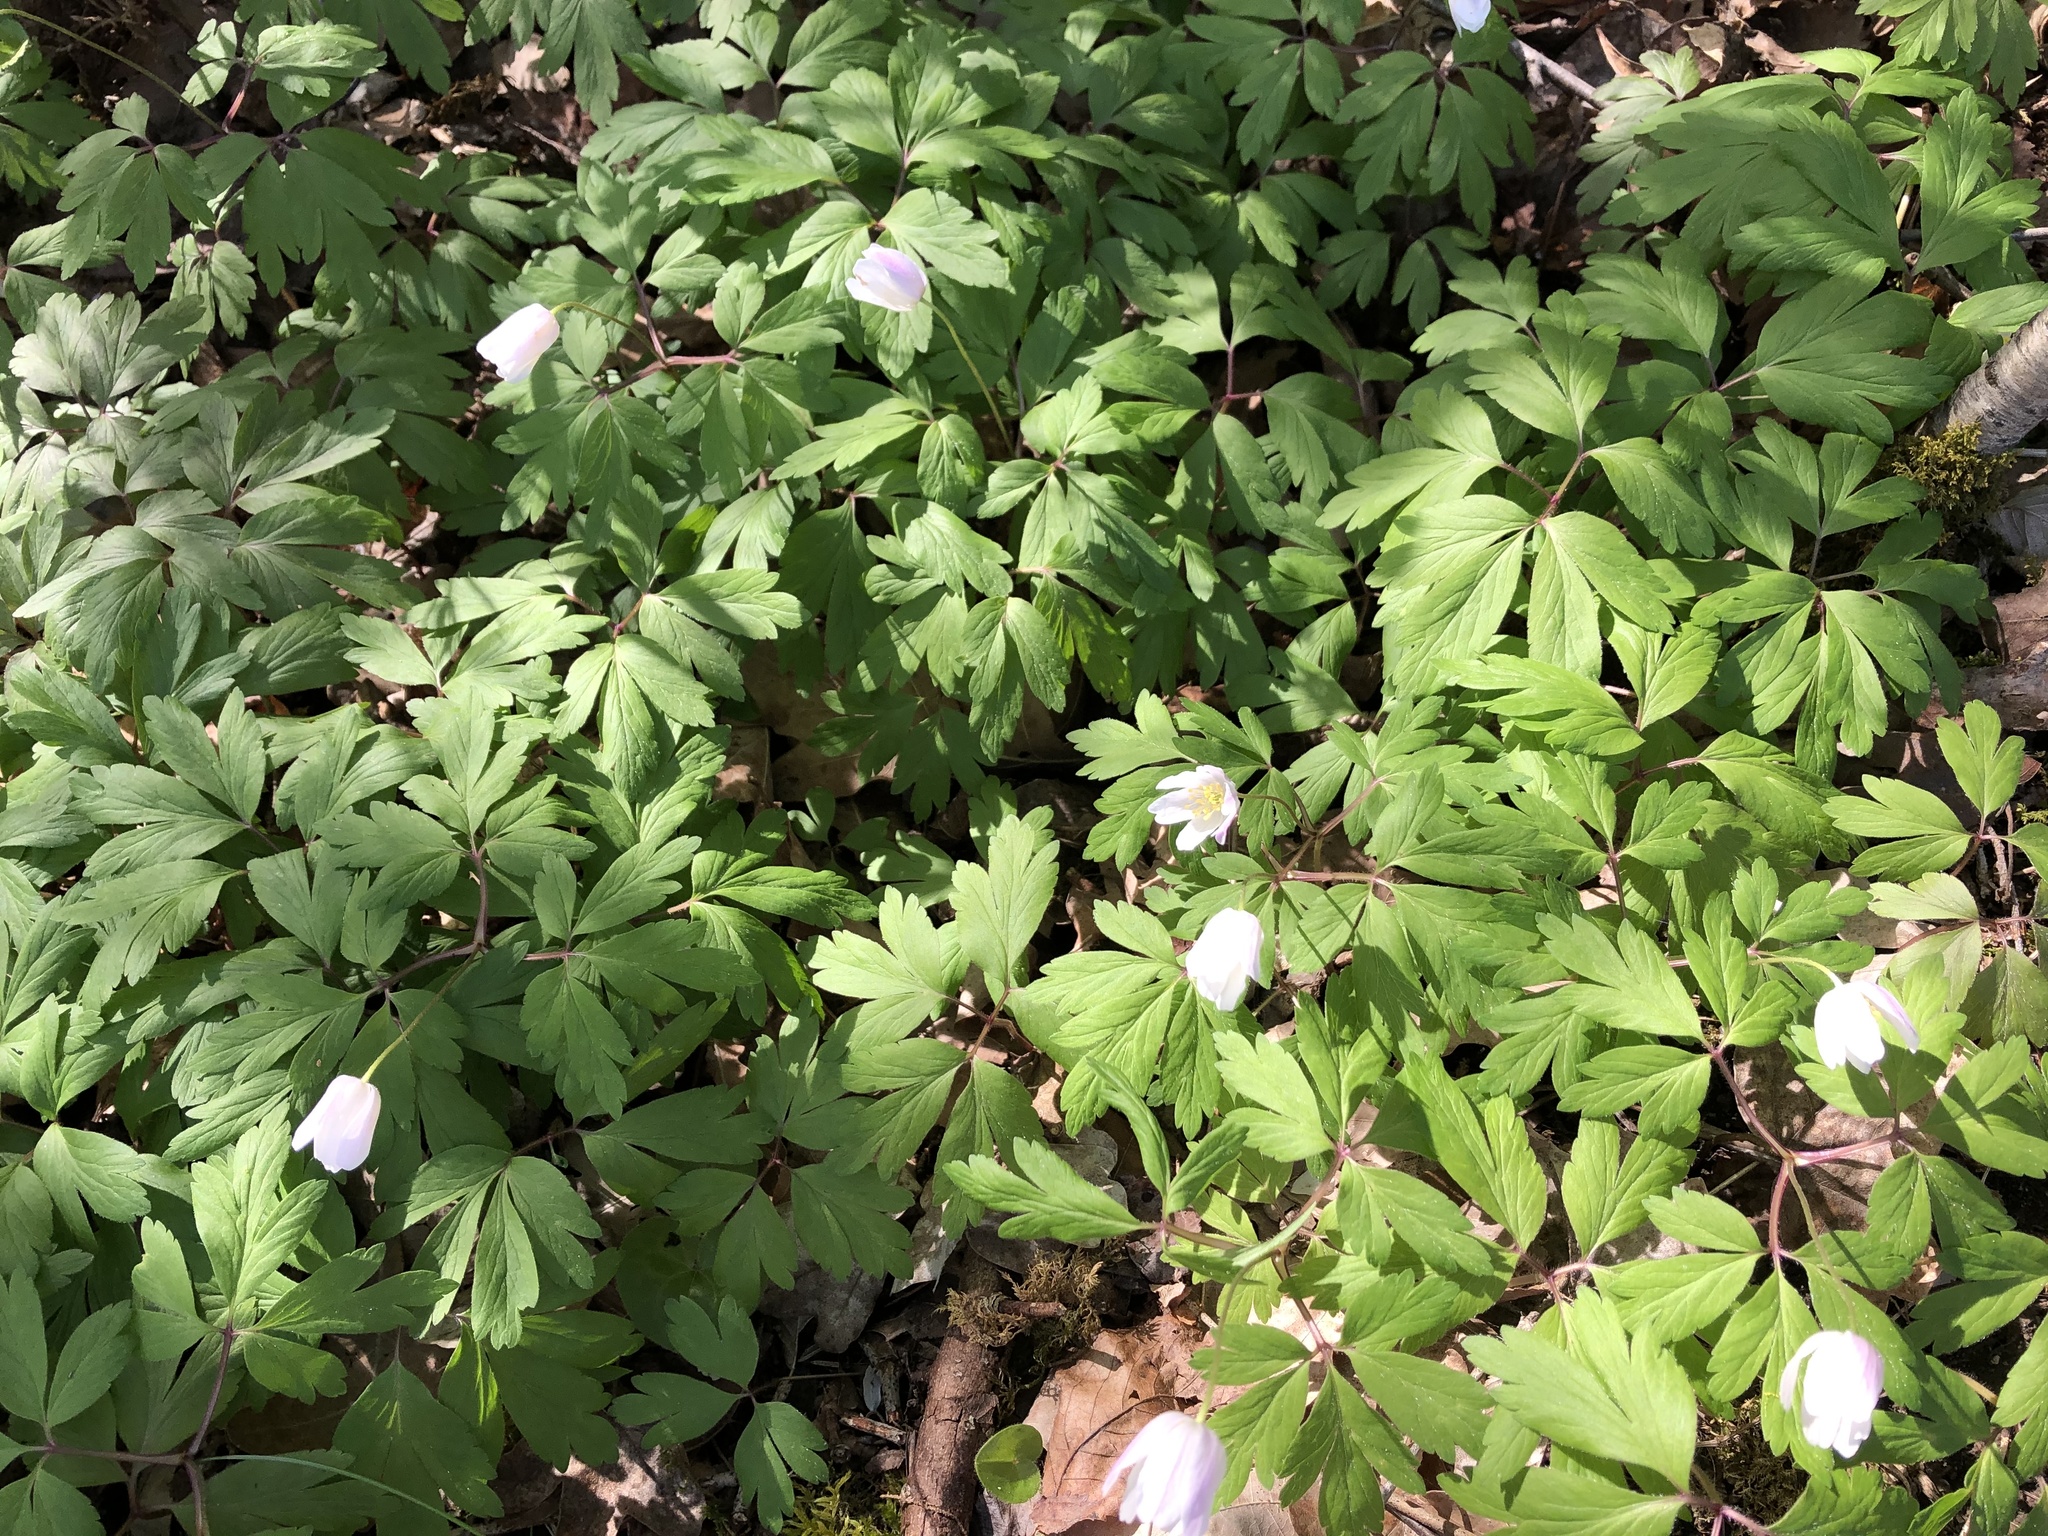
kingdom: Plantae
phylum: Tracheophyta
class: Magnoliopsida
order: Ranunculales
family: Ranunculaceae
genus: Anemone
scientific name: Anemone nemorosa
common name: Wood anemone
